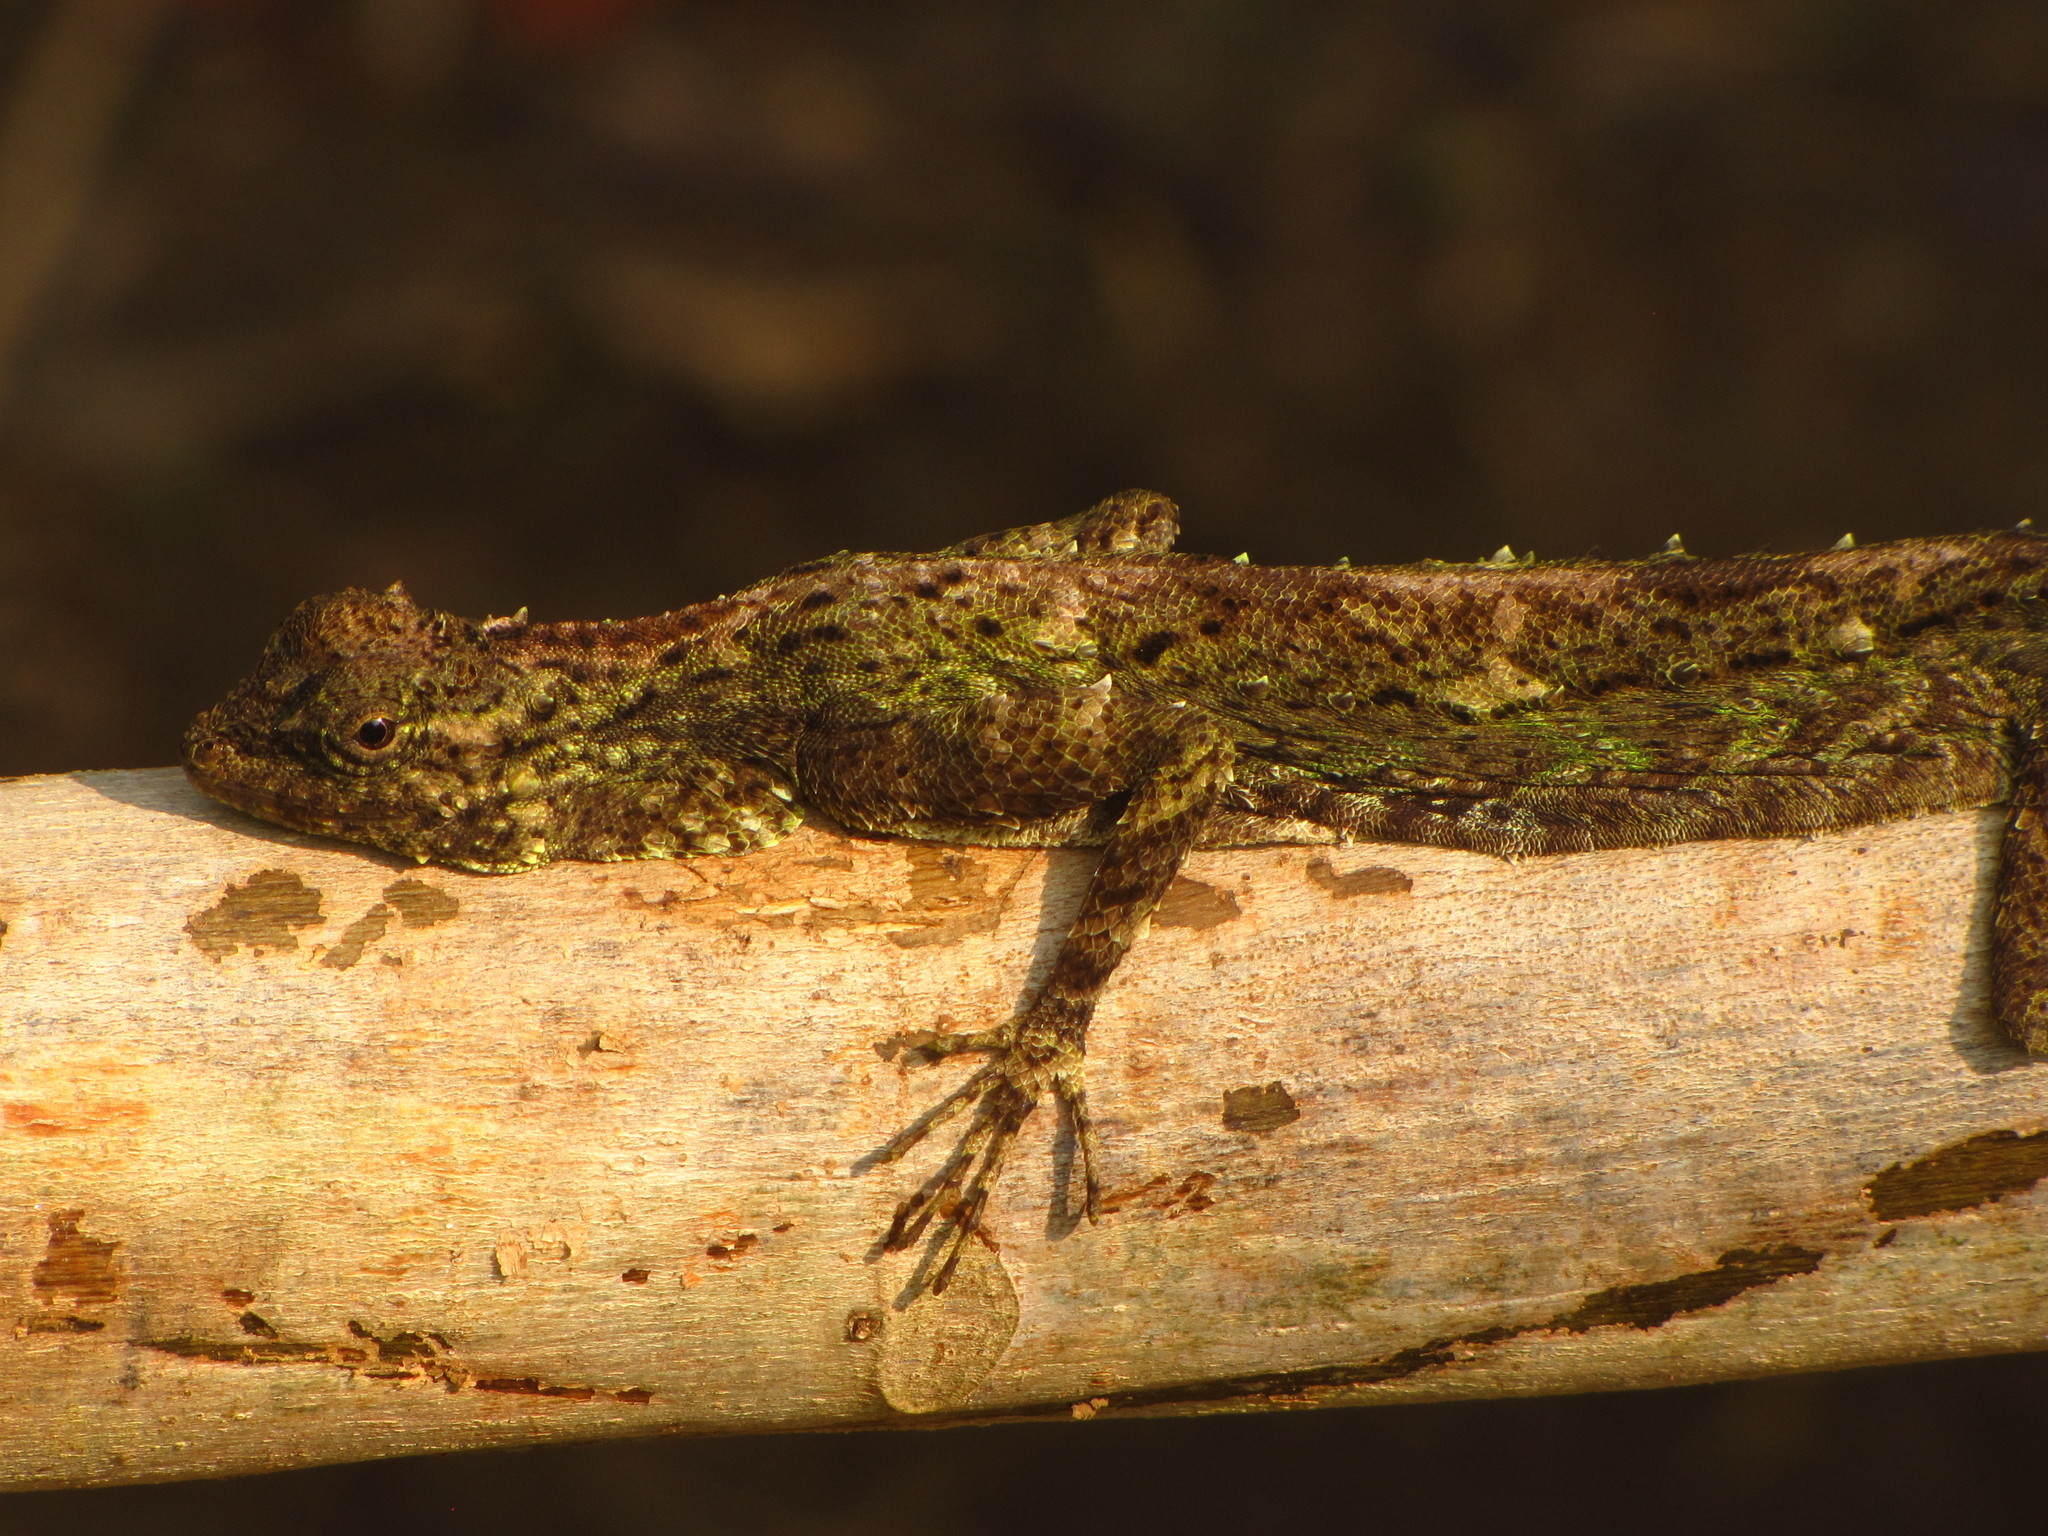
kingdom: Animalia
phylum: Chordata
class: Squamata
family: Agamidae
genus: Draco
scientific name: Draco norvillii
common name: Norvill's flying lizard
